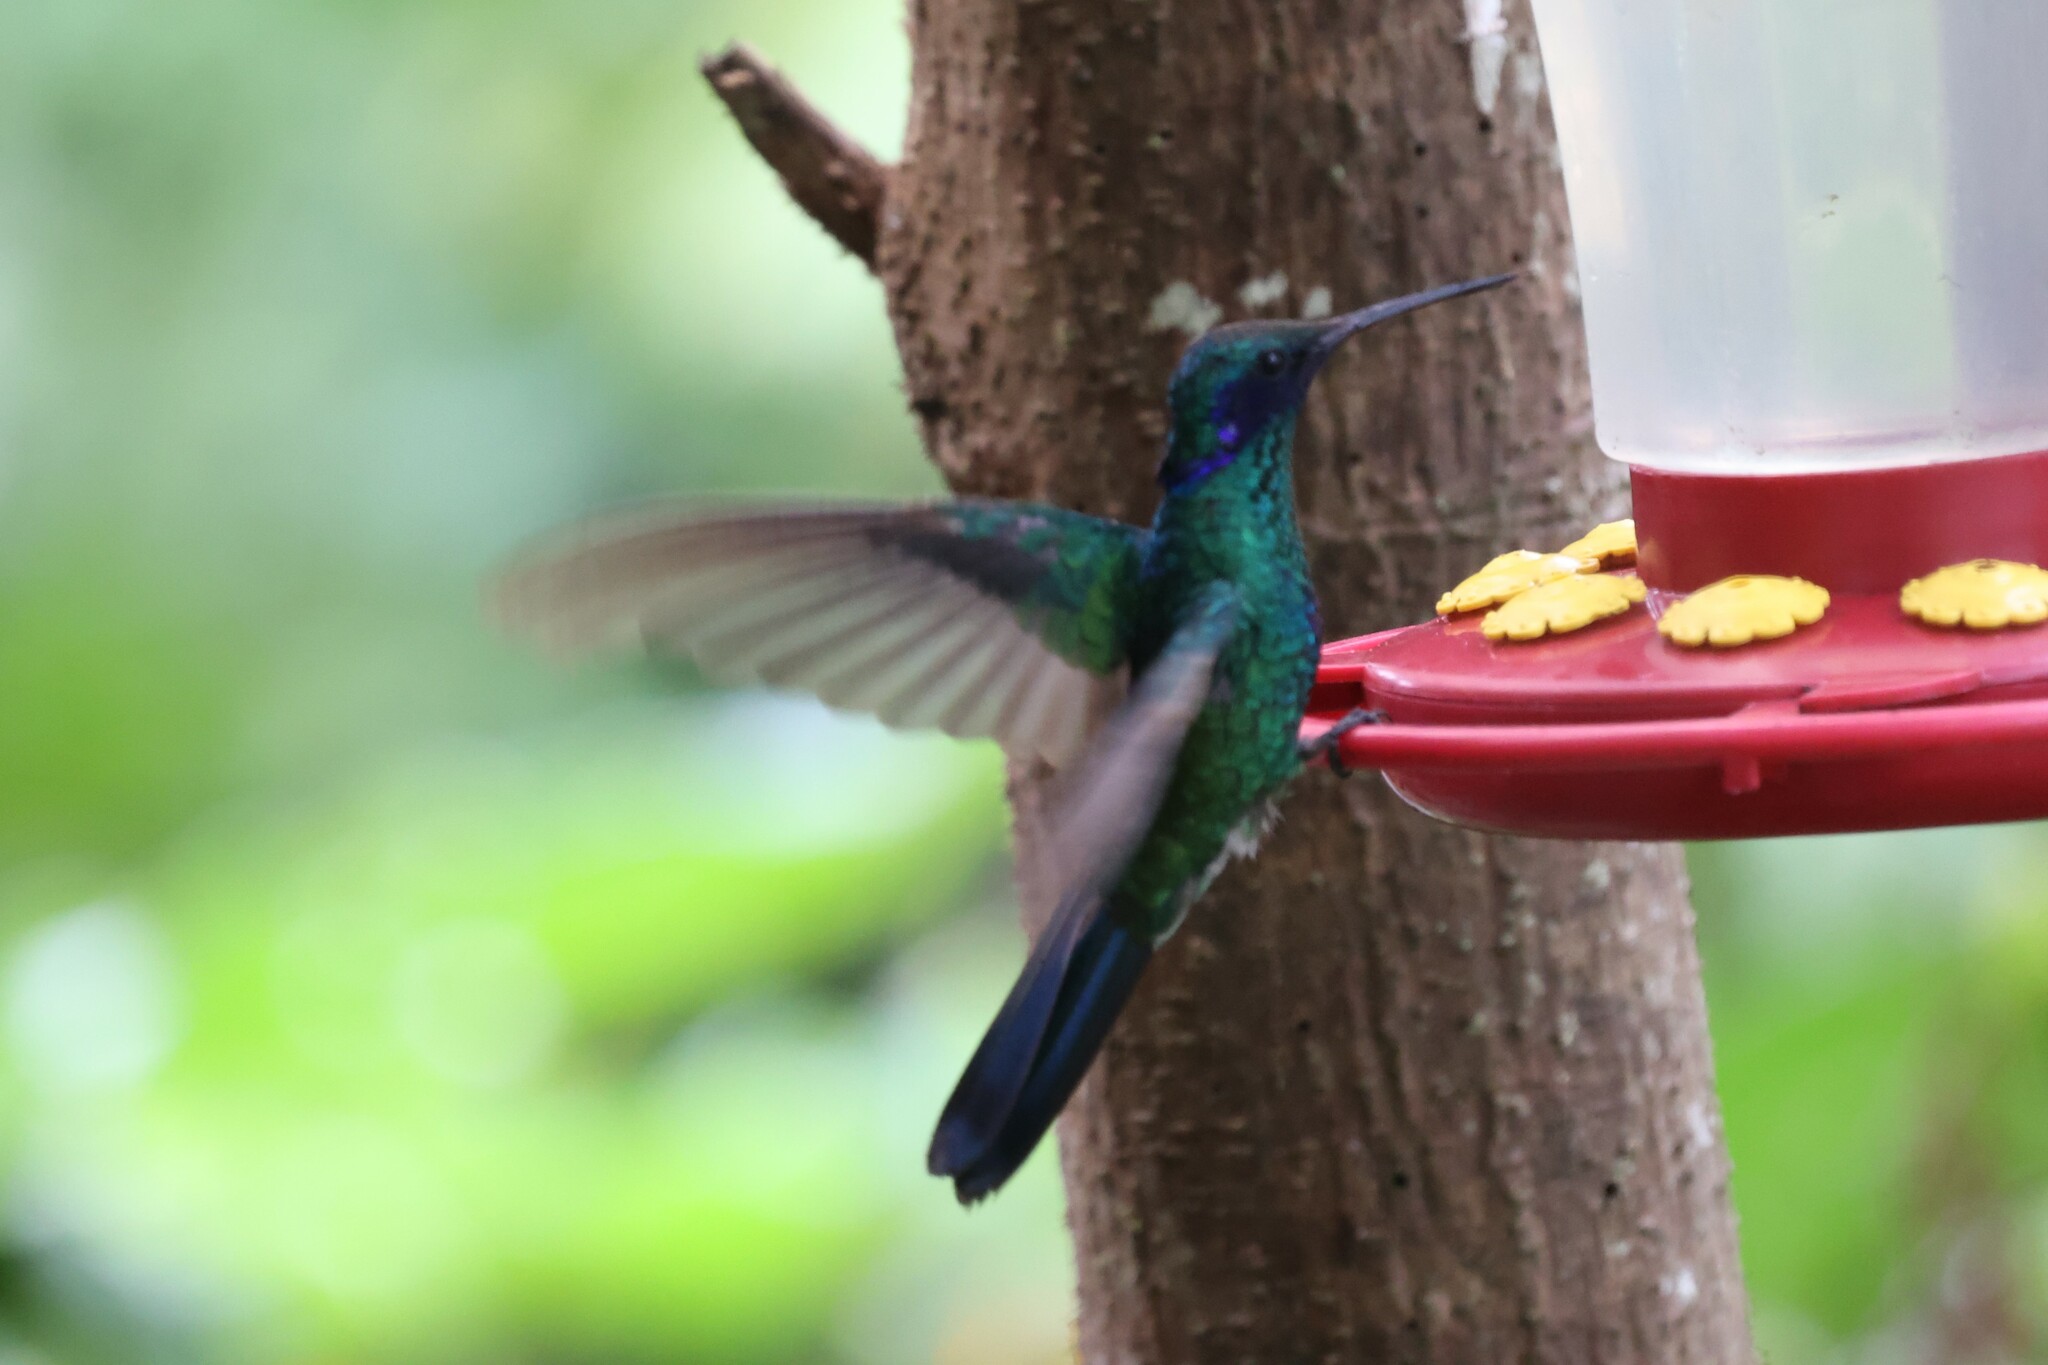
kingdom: Animalia
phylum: Chordata
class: Aves
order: Apodiformes
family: Trochilidae
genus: Colibri
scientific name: Colibri coruscans
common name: Sparkling violetear
